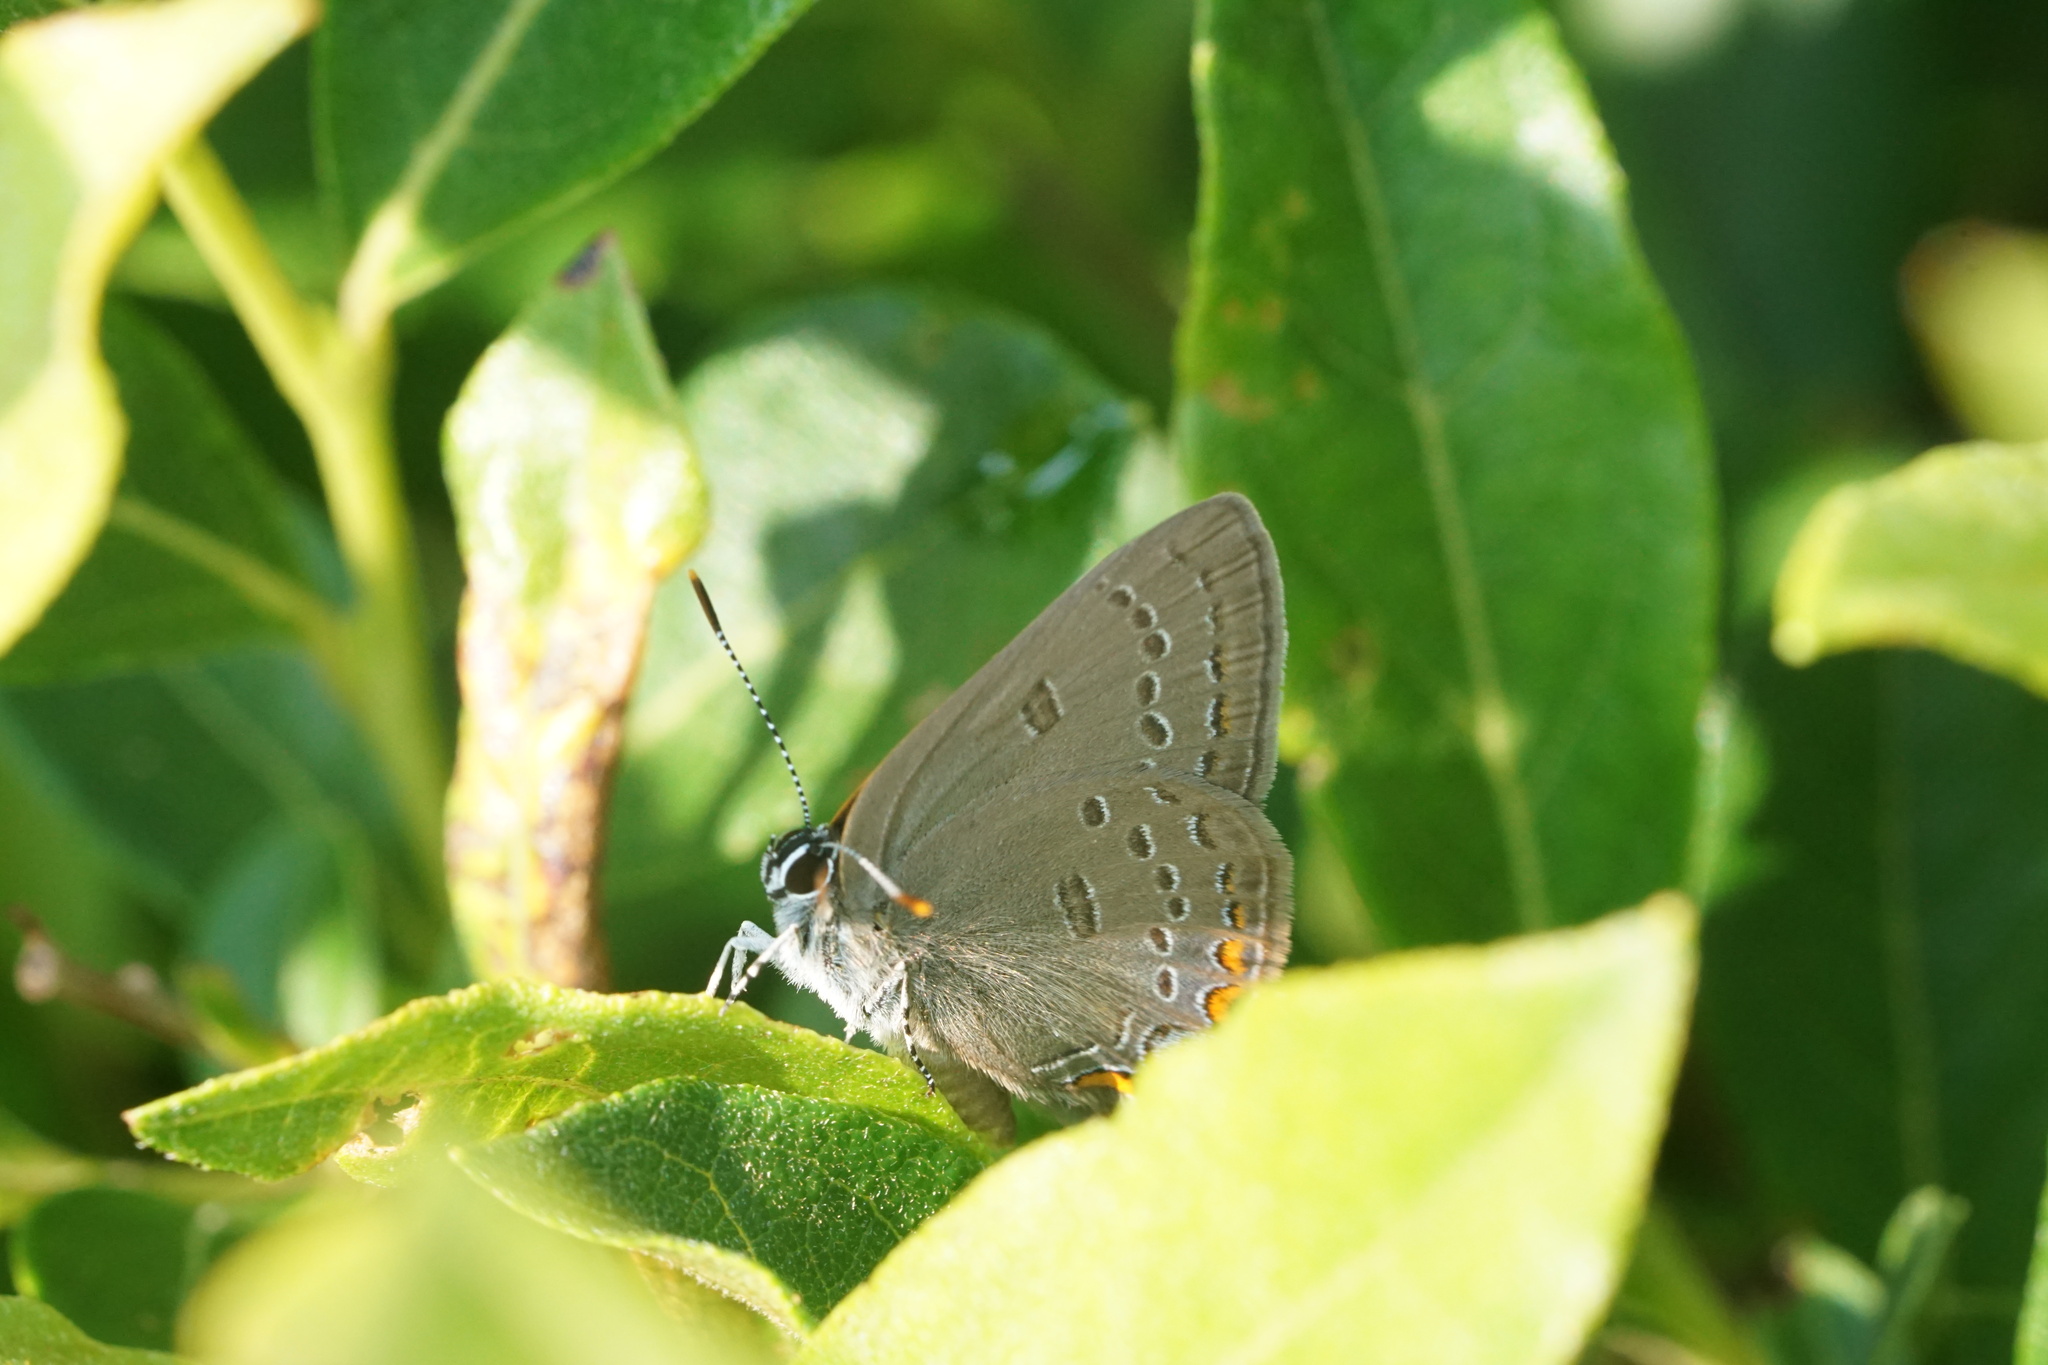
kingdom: Animalia
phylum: Arthropoda
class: Insecta
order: Lepidoptera
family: Lycaenidae
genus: Satyrium
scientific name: Satyrium edwardsii
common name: Edwards' hairstreak
